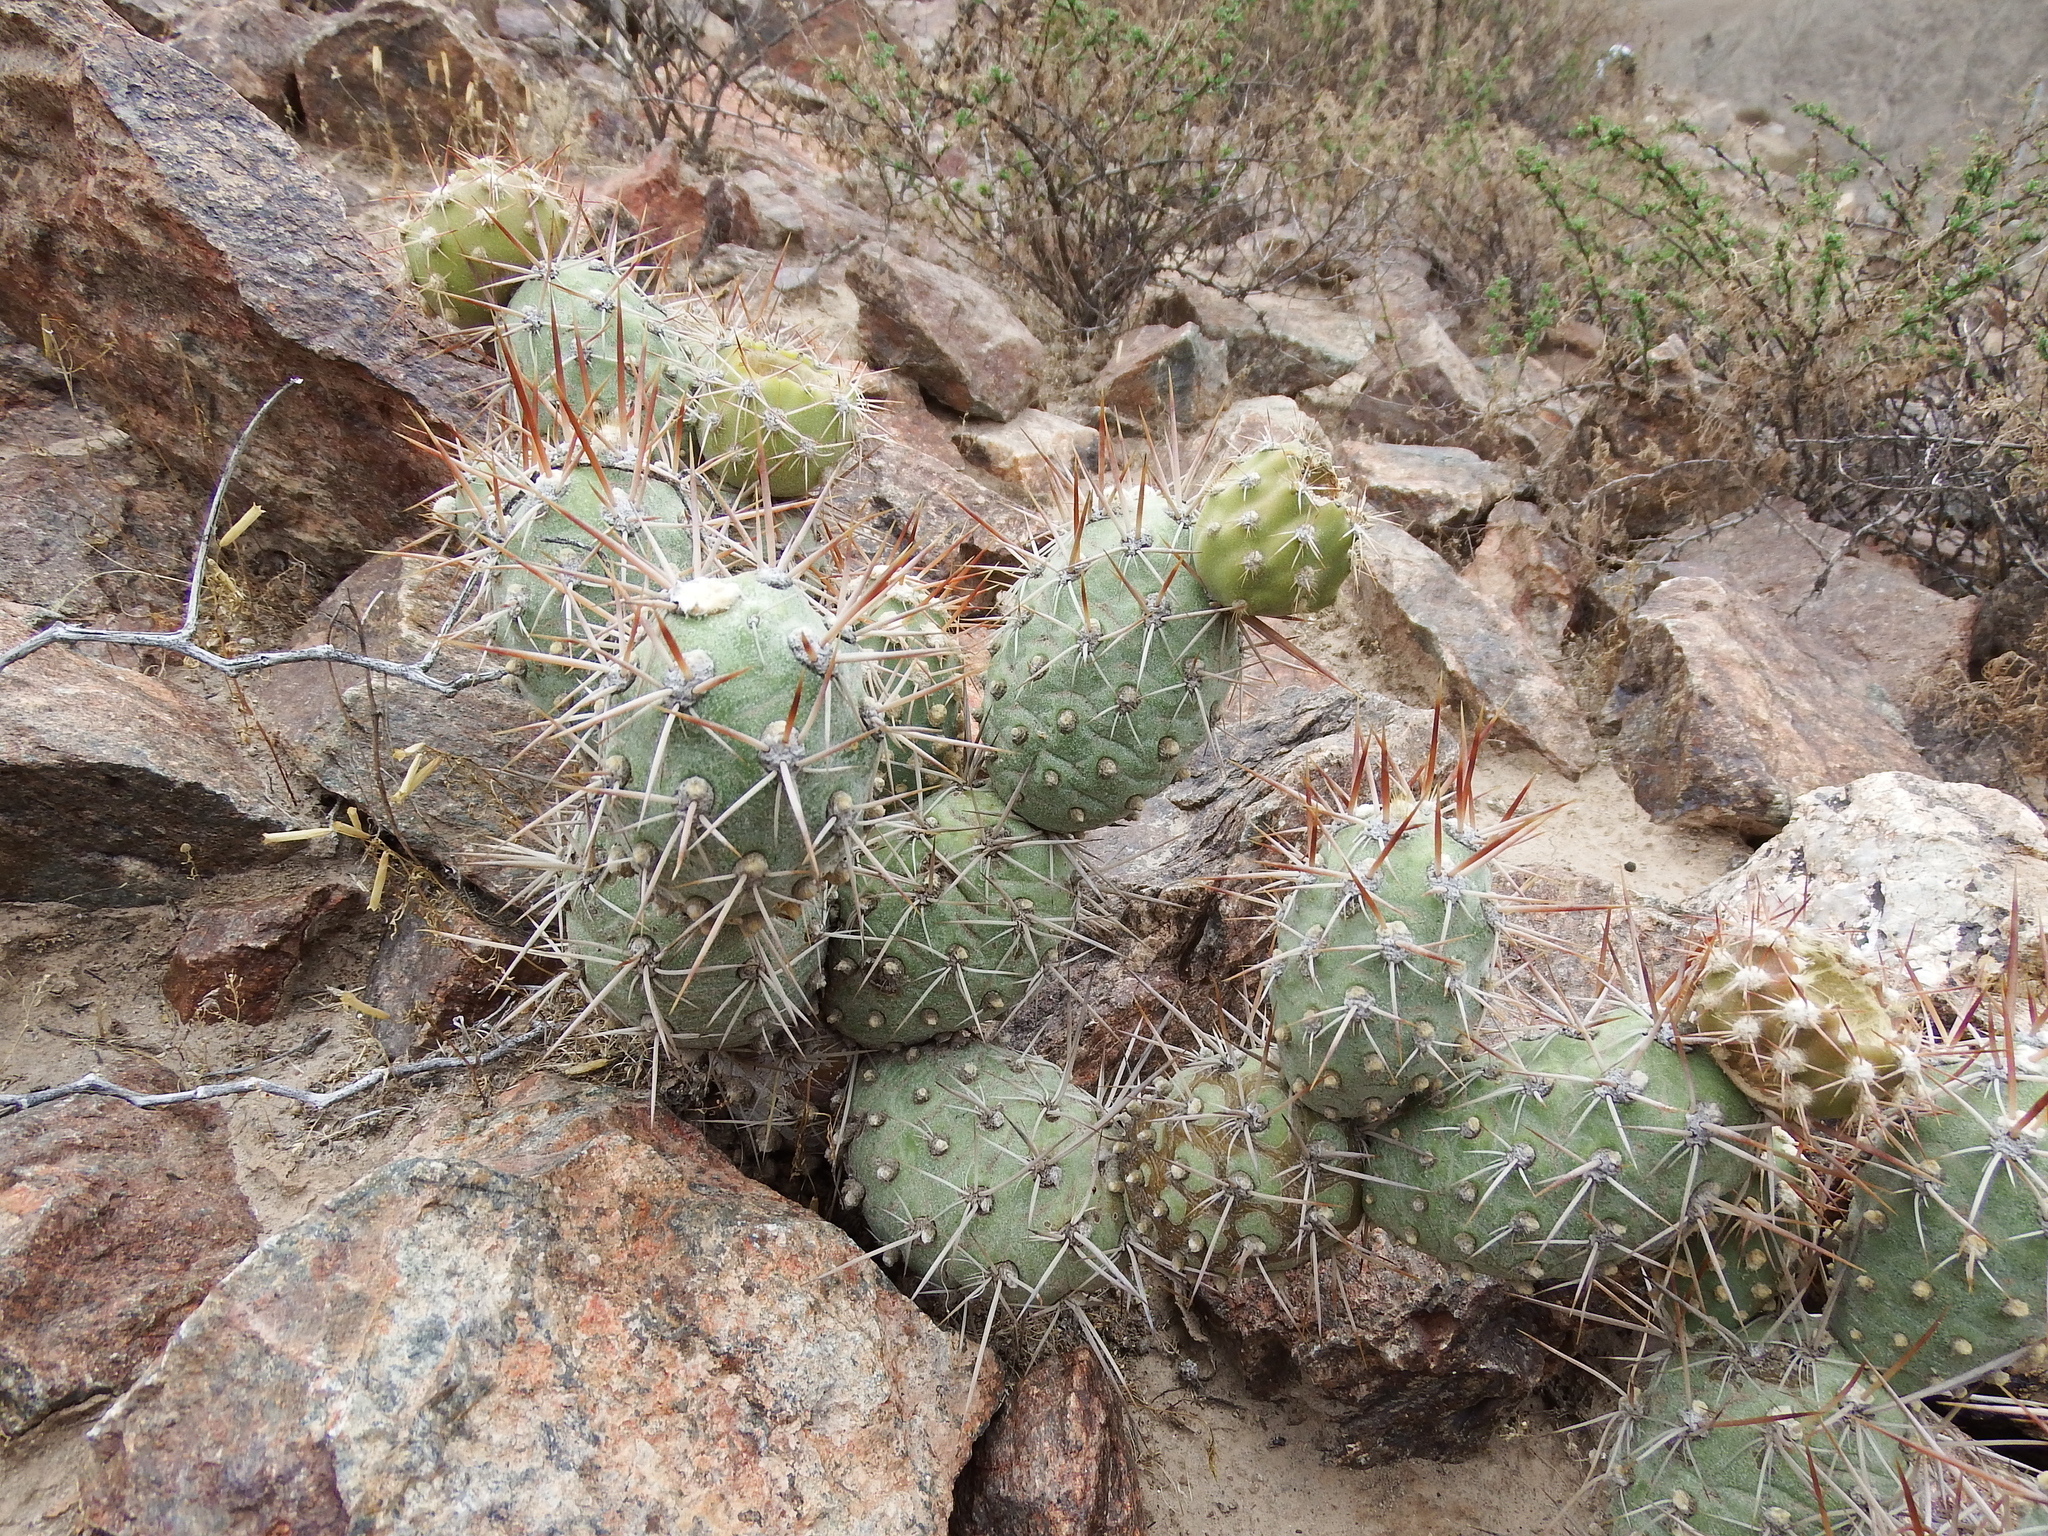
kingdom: Plantae
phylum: Tracheophyta
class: Magnoliopsida
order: Caryophyllales
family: Cactaceae
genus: Cumulopuntia
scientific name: Cumulopuntia leucophaea
